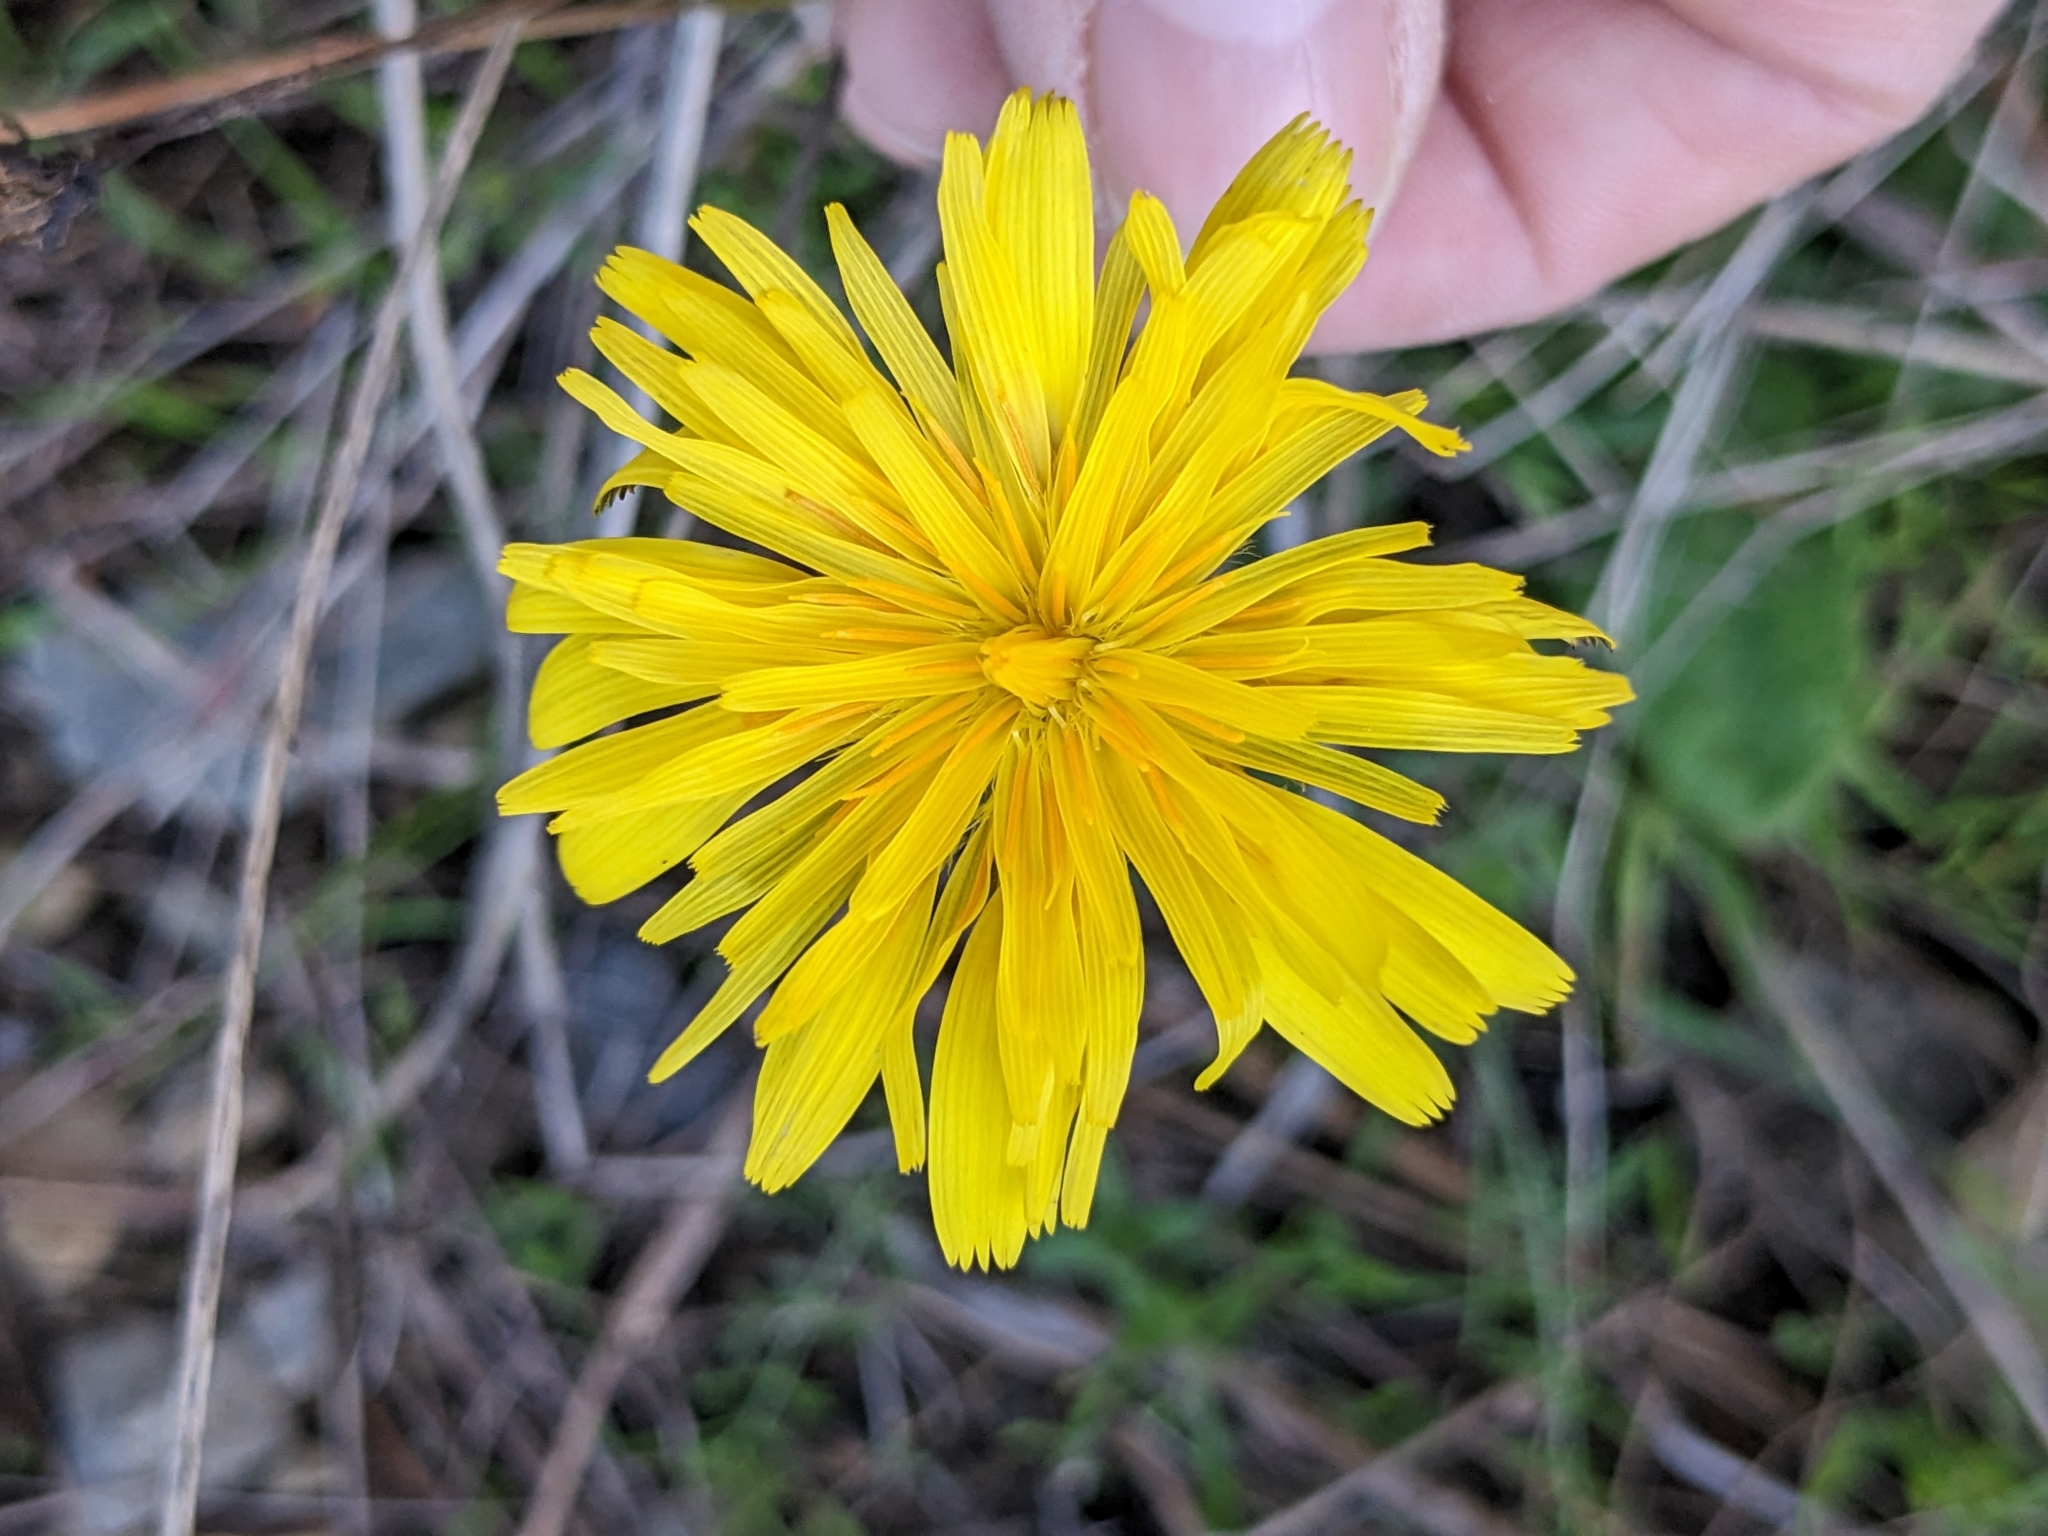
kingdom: Plantae
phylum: Tracheophyta
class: Magnoliopsida
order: Asterales
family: Asteraceae
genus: Hypochaeris
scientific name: Hypochaeris radicata
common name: Flatweed
